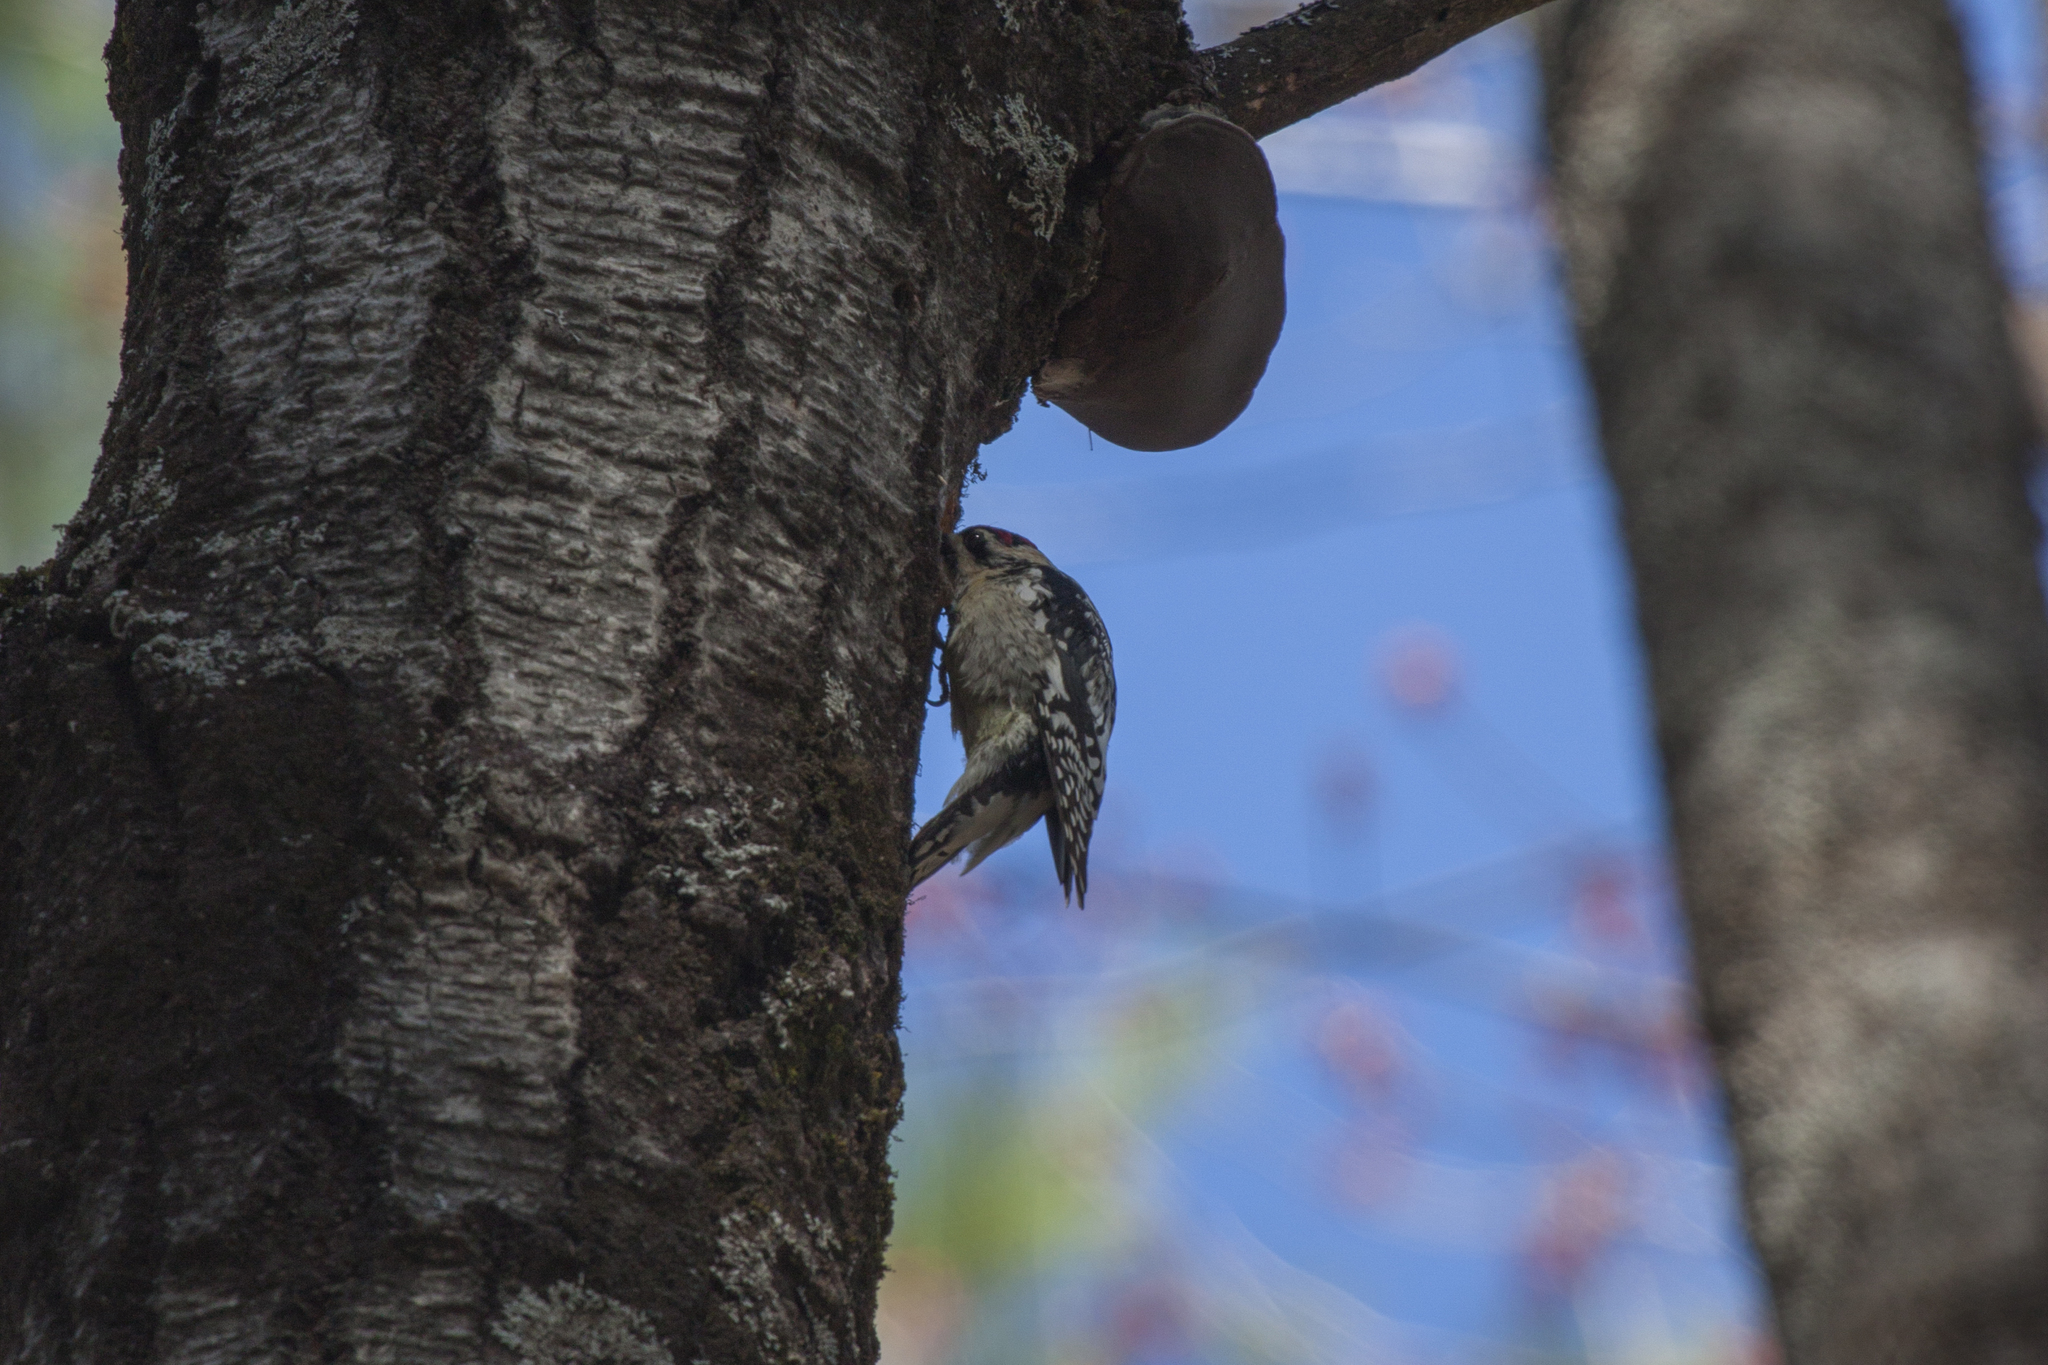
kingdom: Animalia
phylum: Chordata
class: Aves
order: Piciformes
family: Picidae
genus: Sphyrapicus
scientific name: Sphyrapicus varius
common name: Yellow-bellied sapsucker
